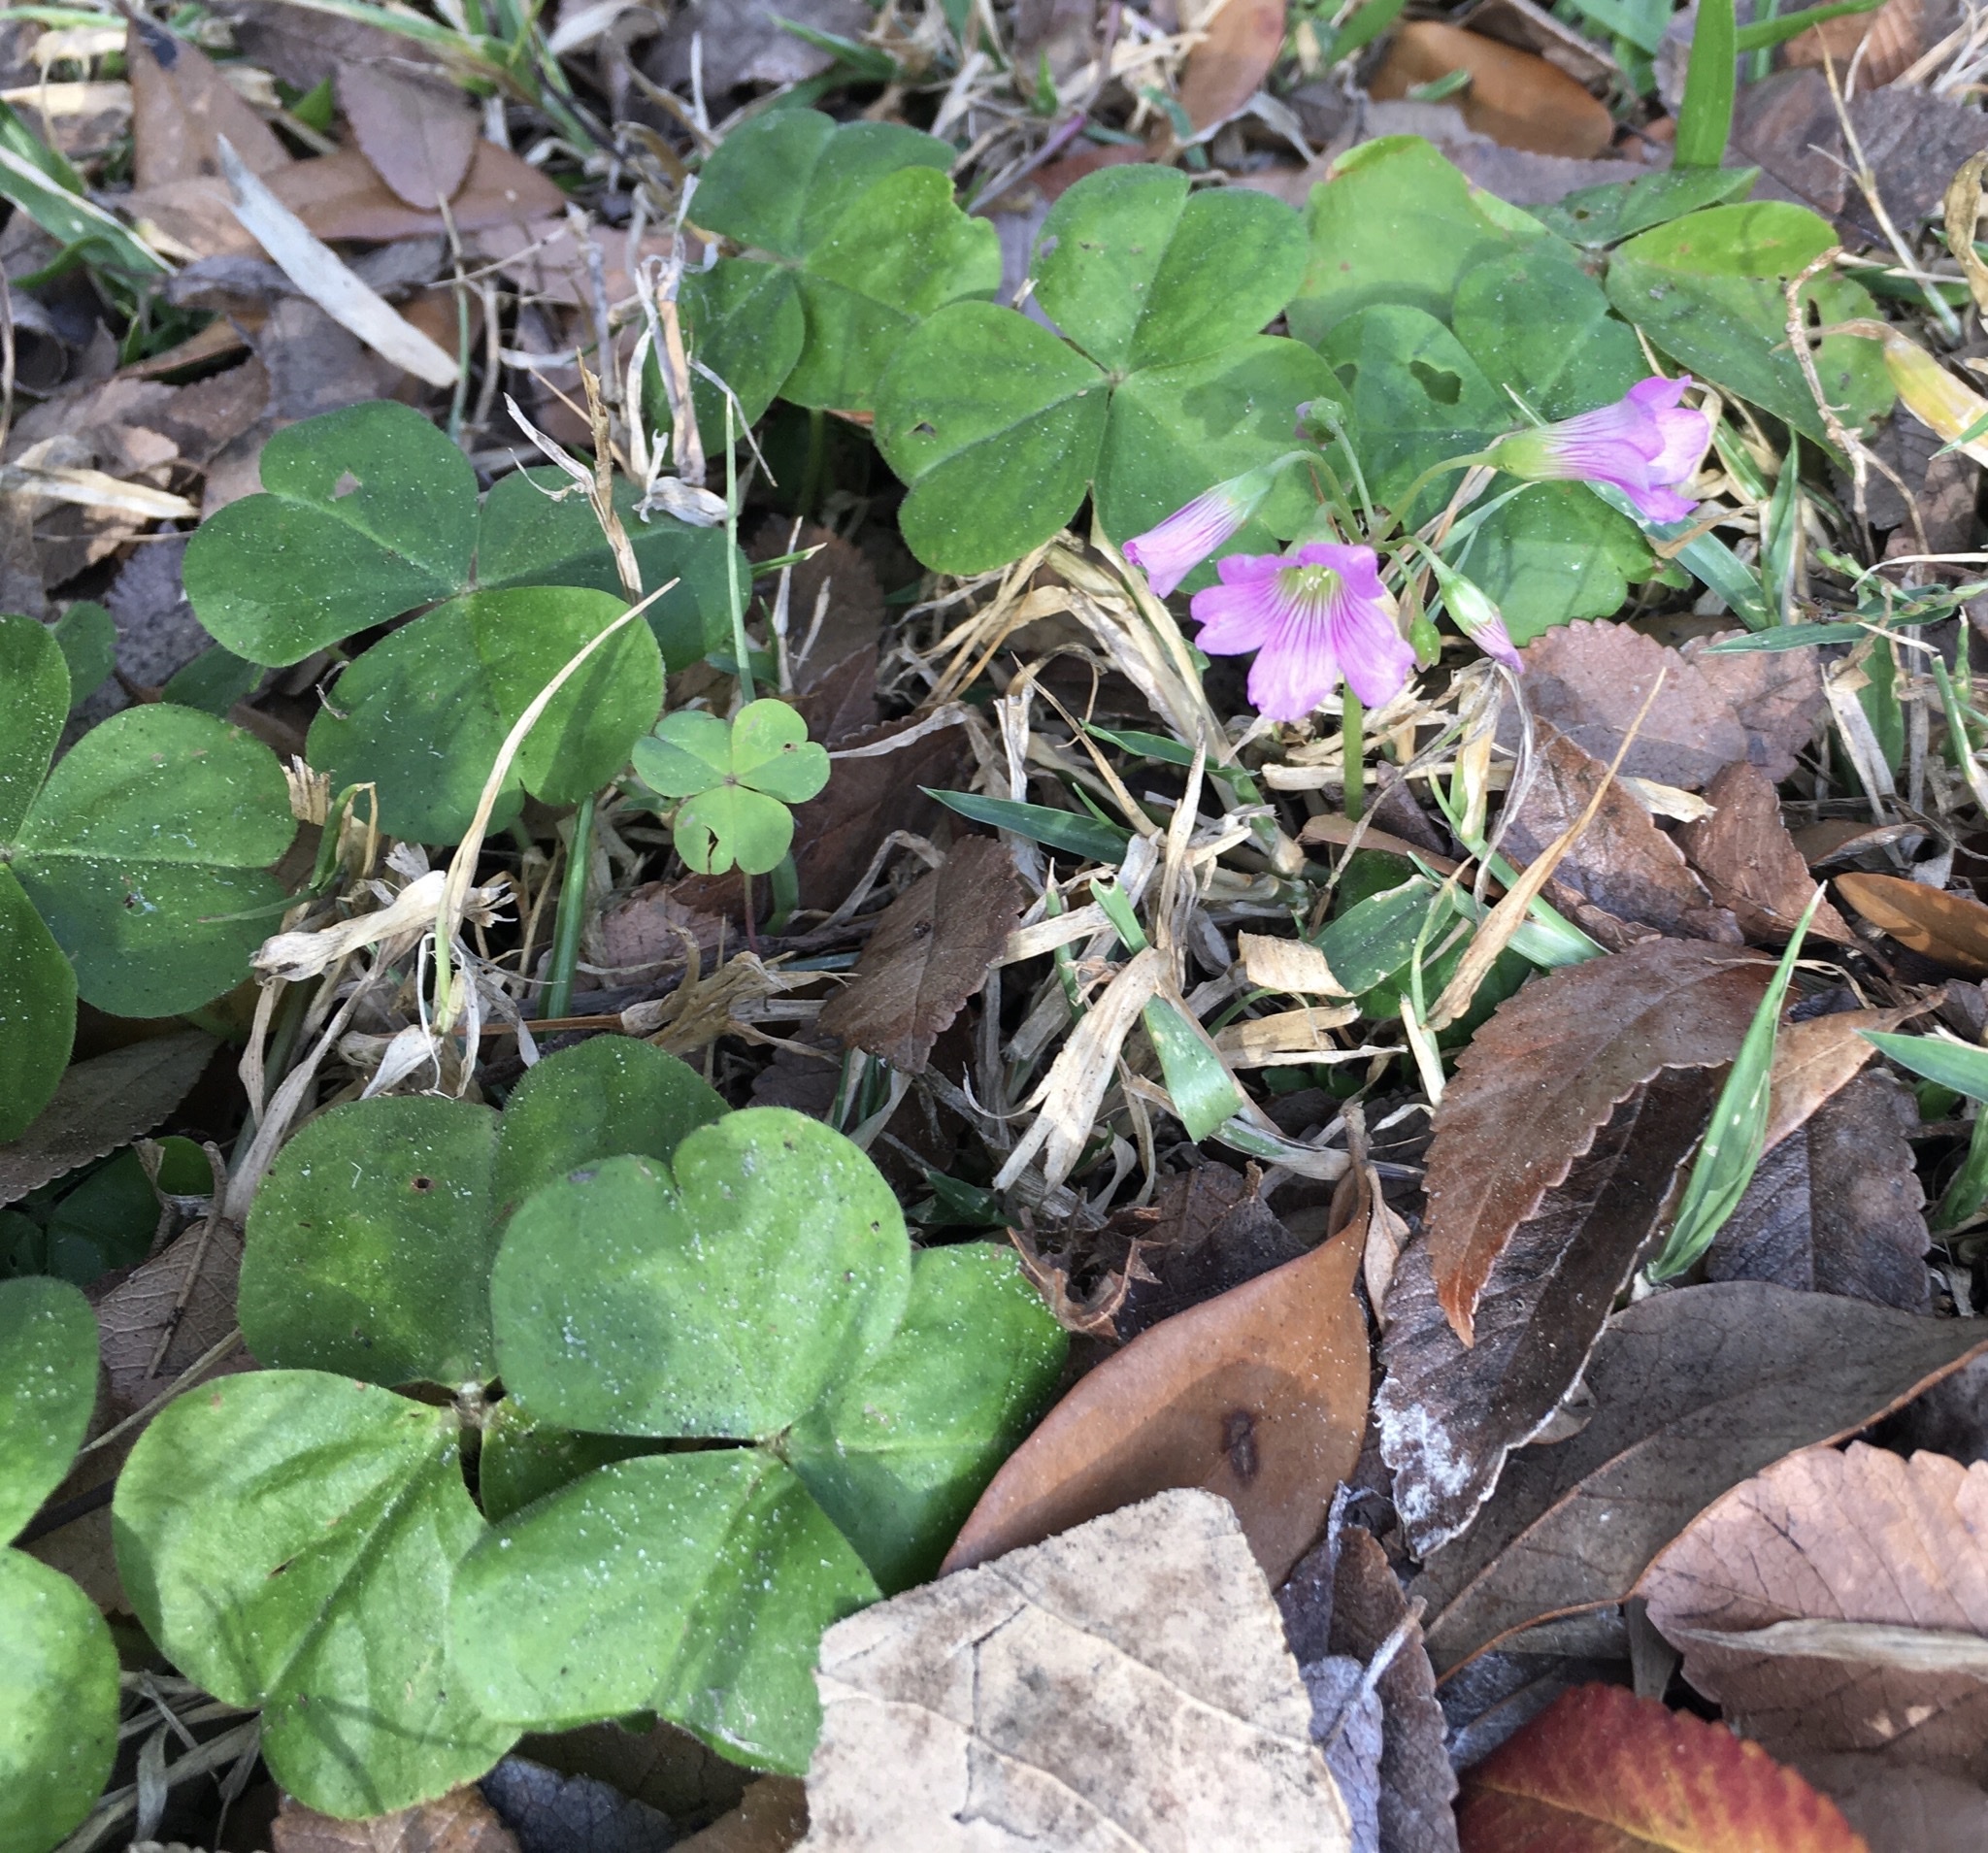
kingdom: Plantae
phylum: Tracheophyta
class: Magnoliopsida
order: Oxalidales
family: Oxalidaceae
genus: Oxalis
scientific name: Oxalis debilis
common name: Large-flowered pink-sorrel
